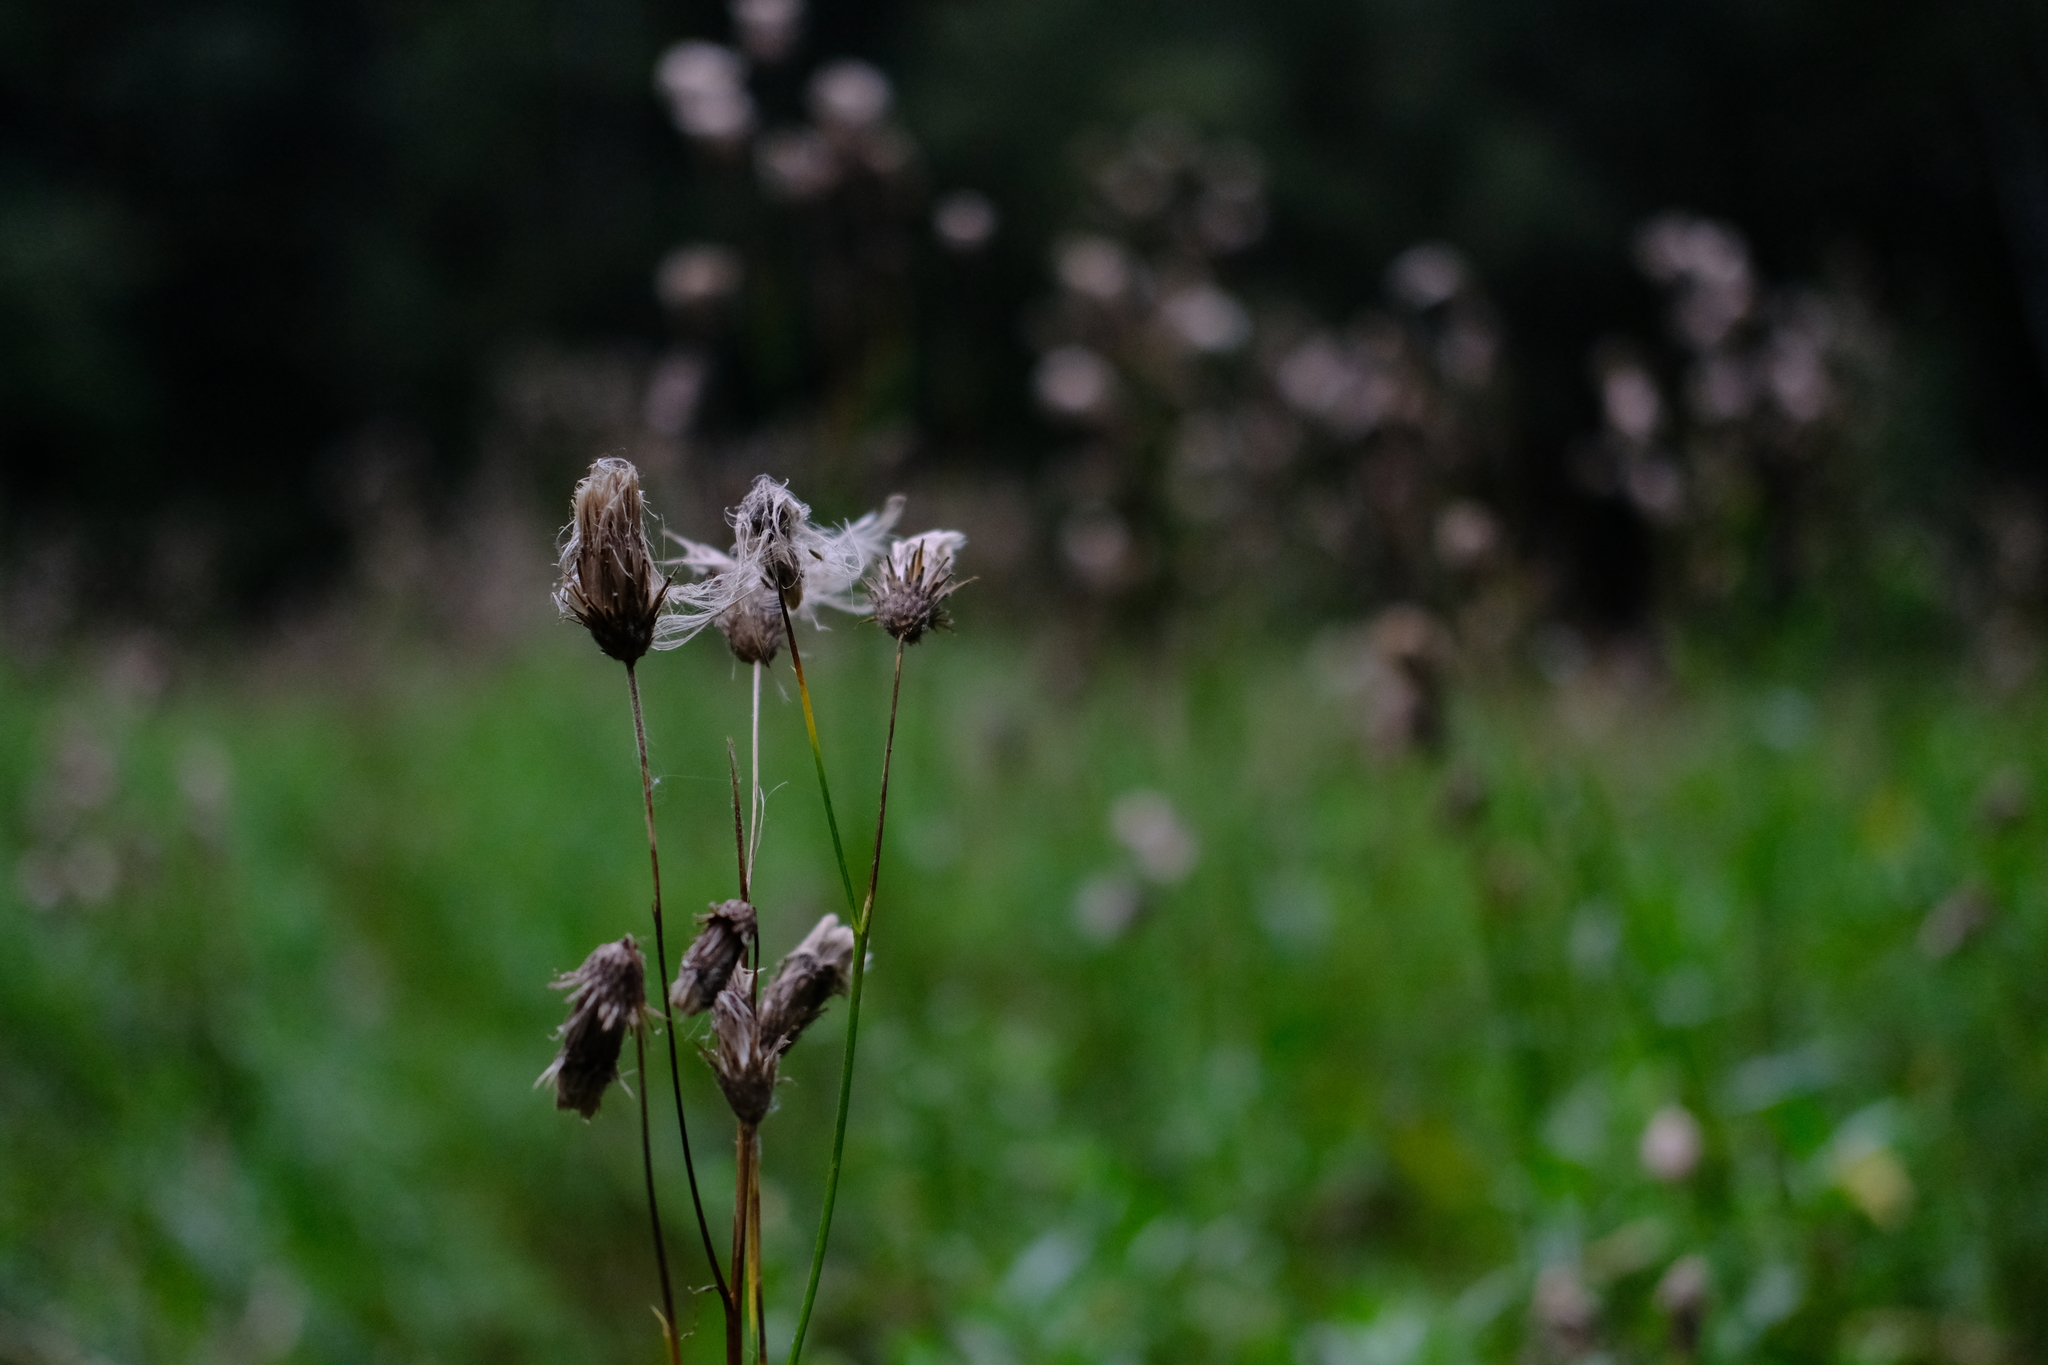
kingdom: Plantae
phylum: Tracheophyta
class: Magnoliopsida
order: Asterales
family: Asteraceae
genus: Cirsium
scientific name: Cirsium arvense
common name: Creeping thistle
